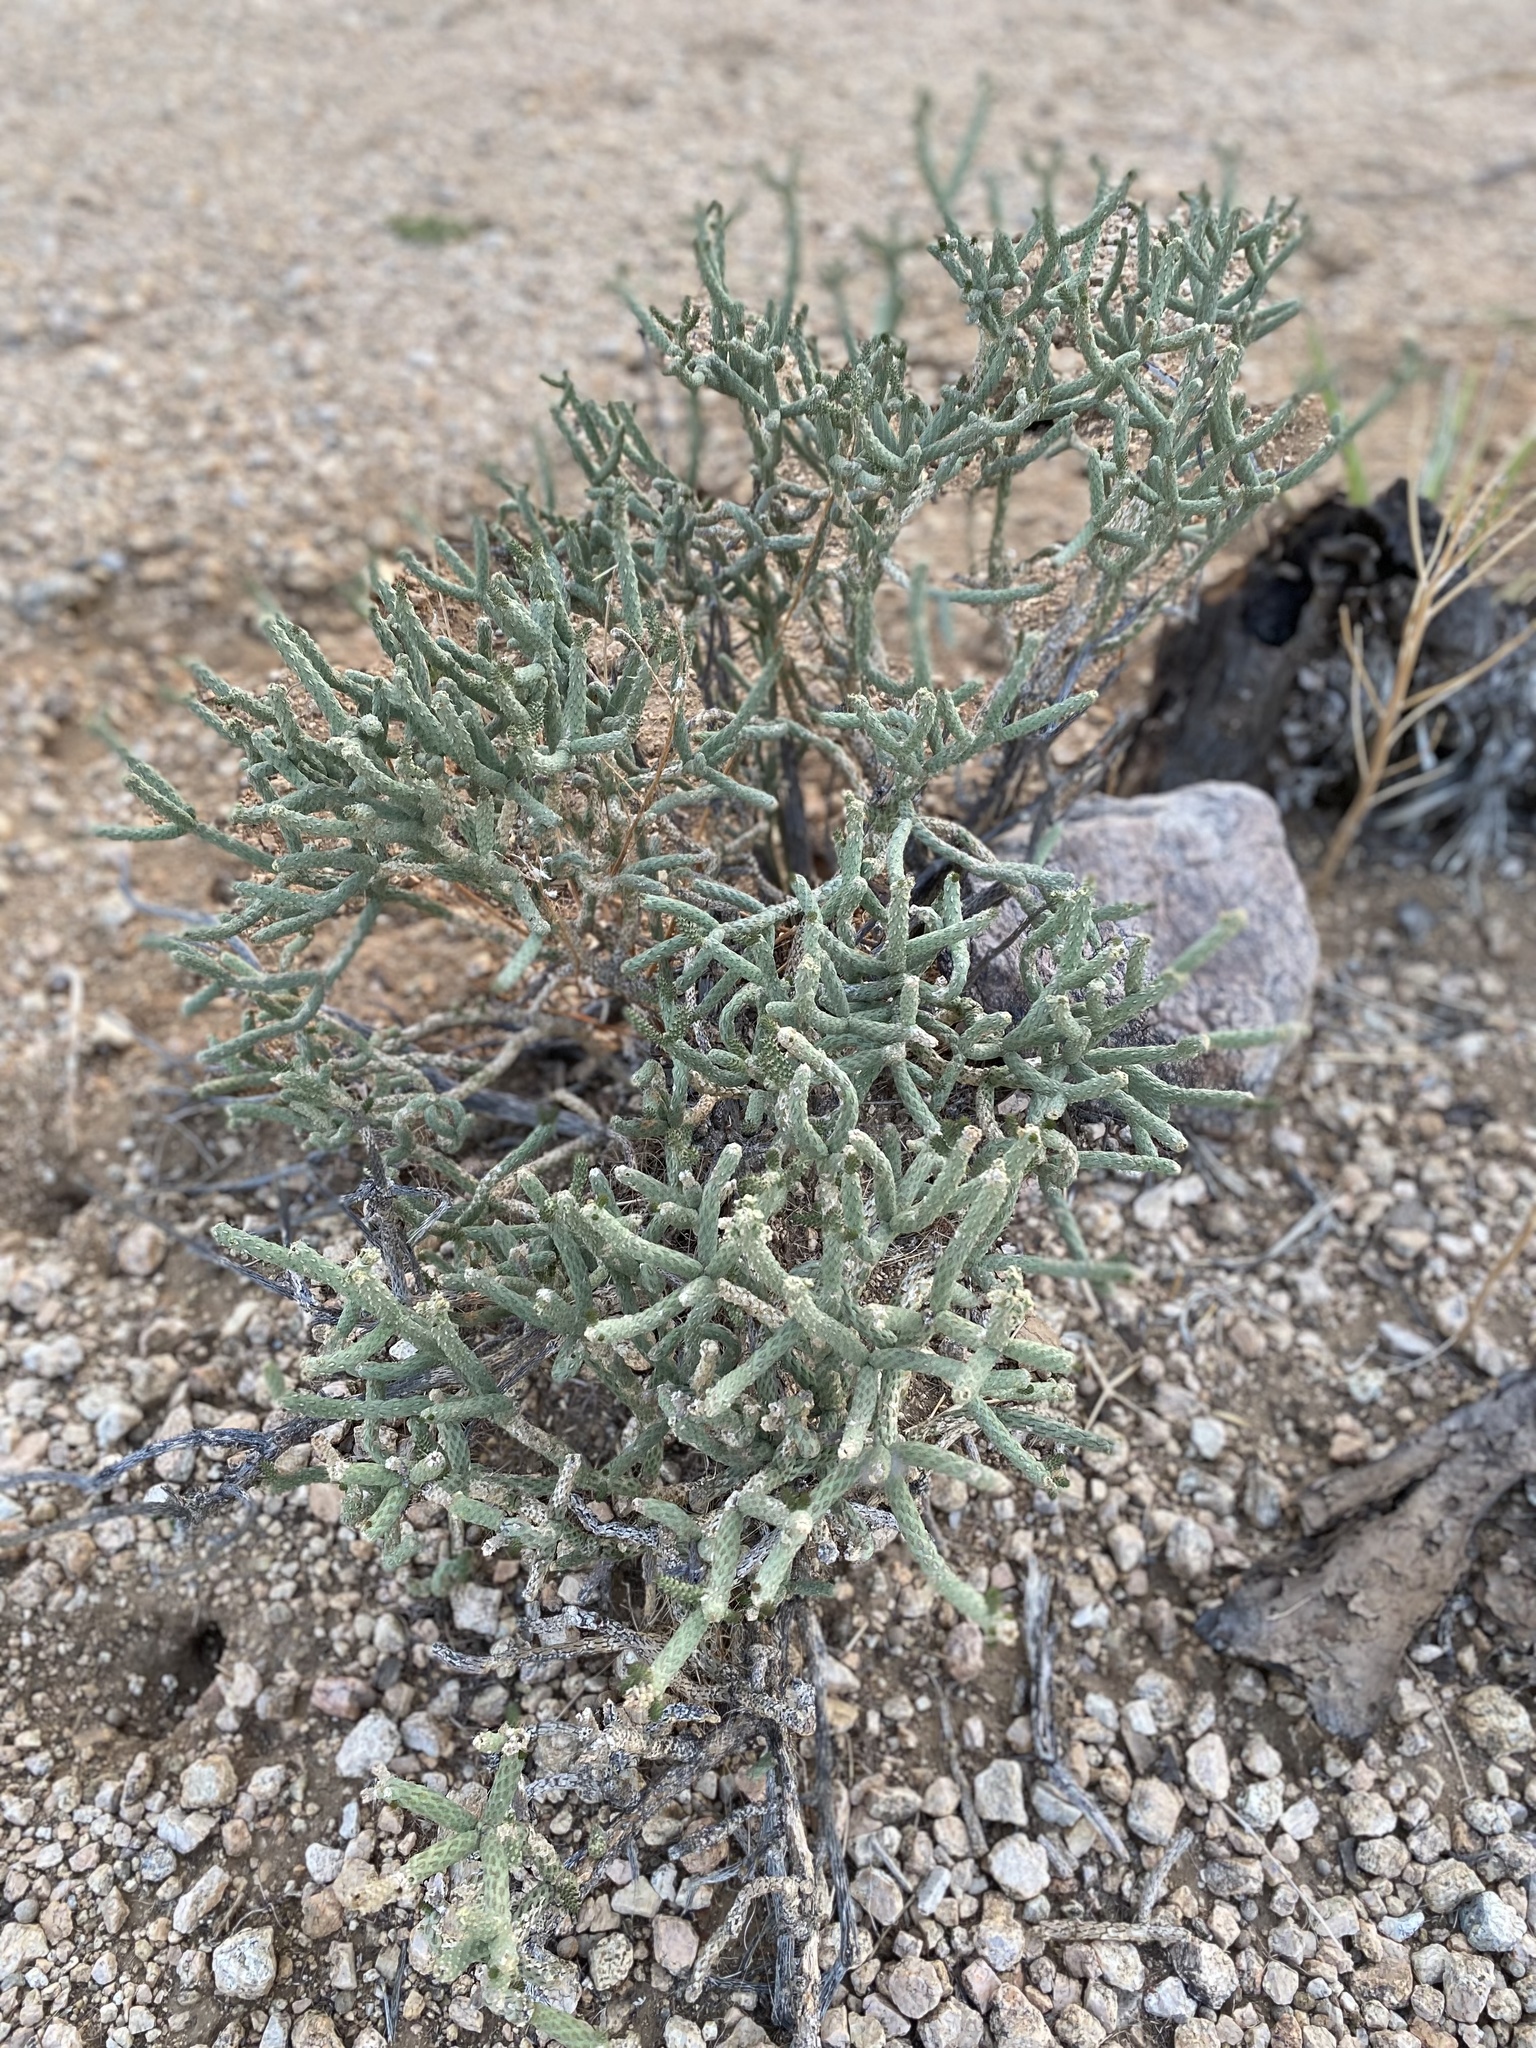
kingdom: Plantae
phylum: Tracheophyta
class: Magnoliopsida
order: Caryophyllales
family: Cactaceae
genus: Cylindropuntia
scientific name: Cylindropuntia ramosissima
